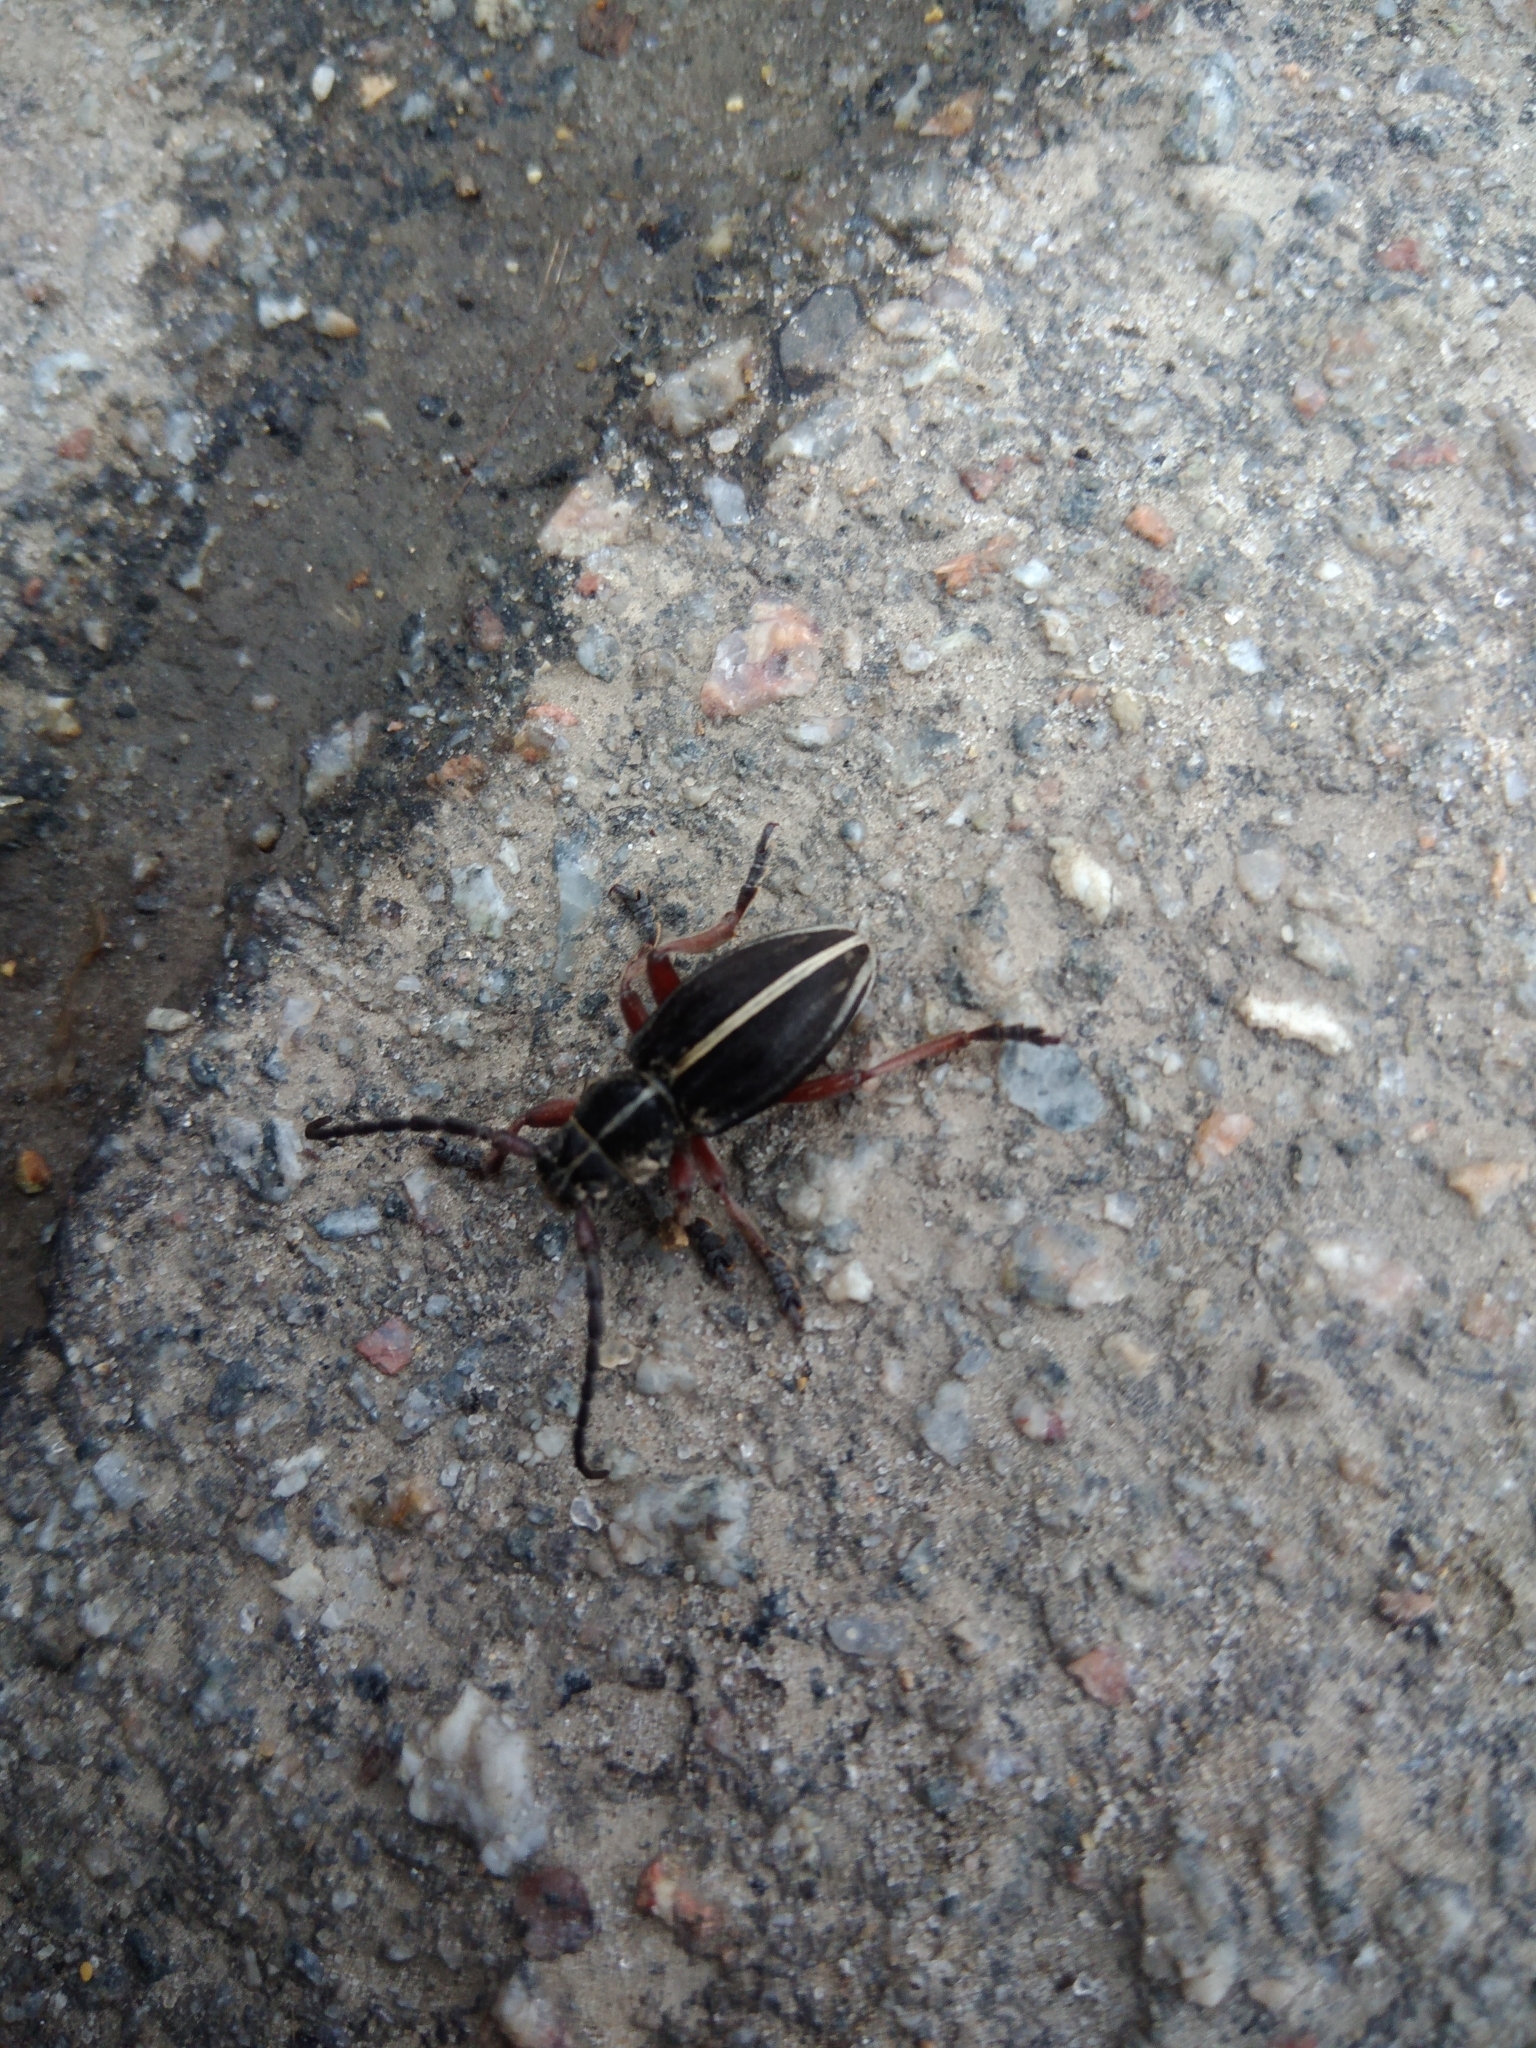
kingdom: Animalia
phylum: Arthropoda
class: Insecta
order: Coleoptera
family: Cerambycidae
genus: Dorcadion
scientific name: Dorcadion tauricum
